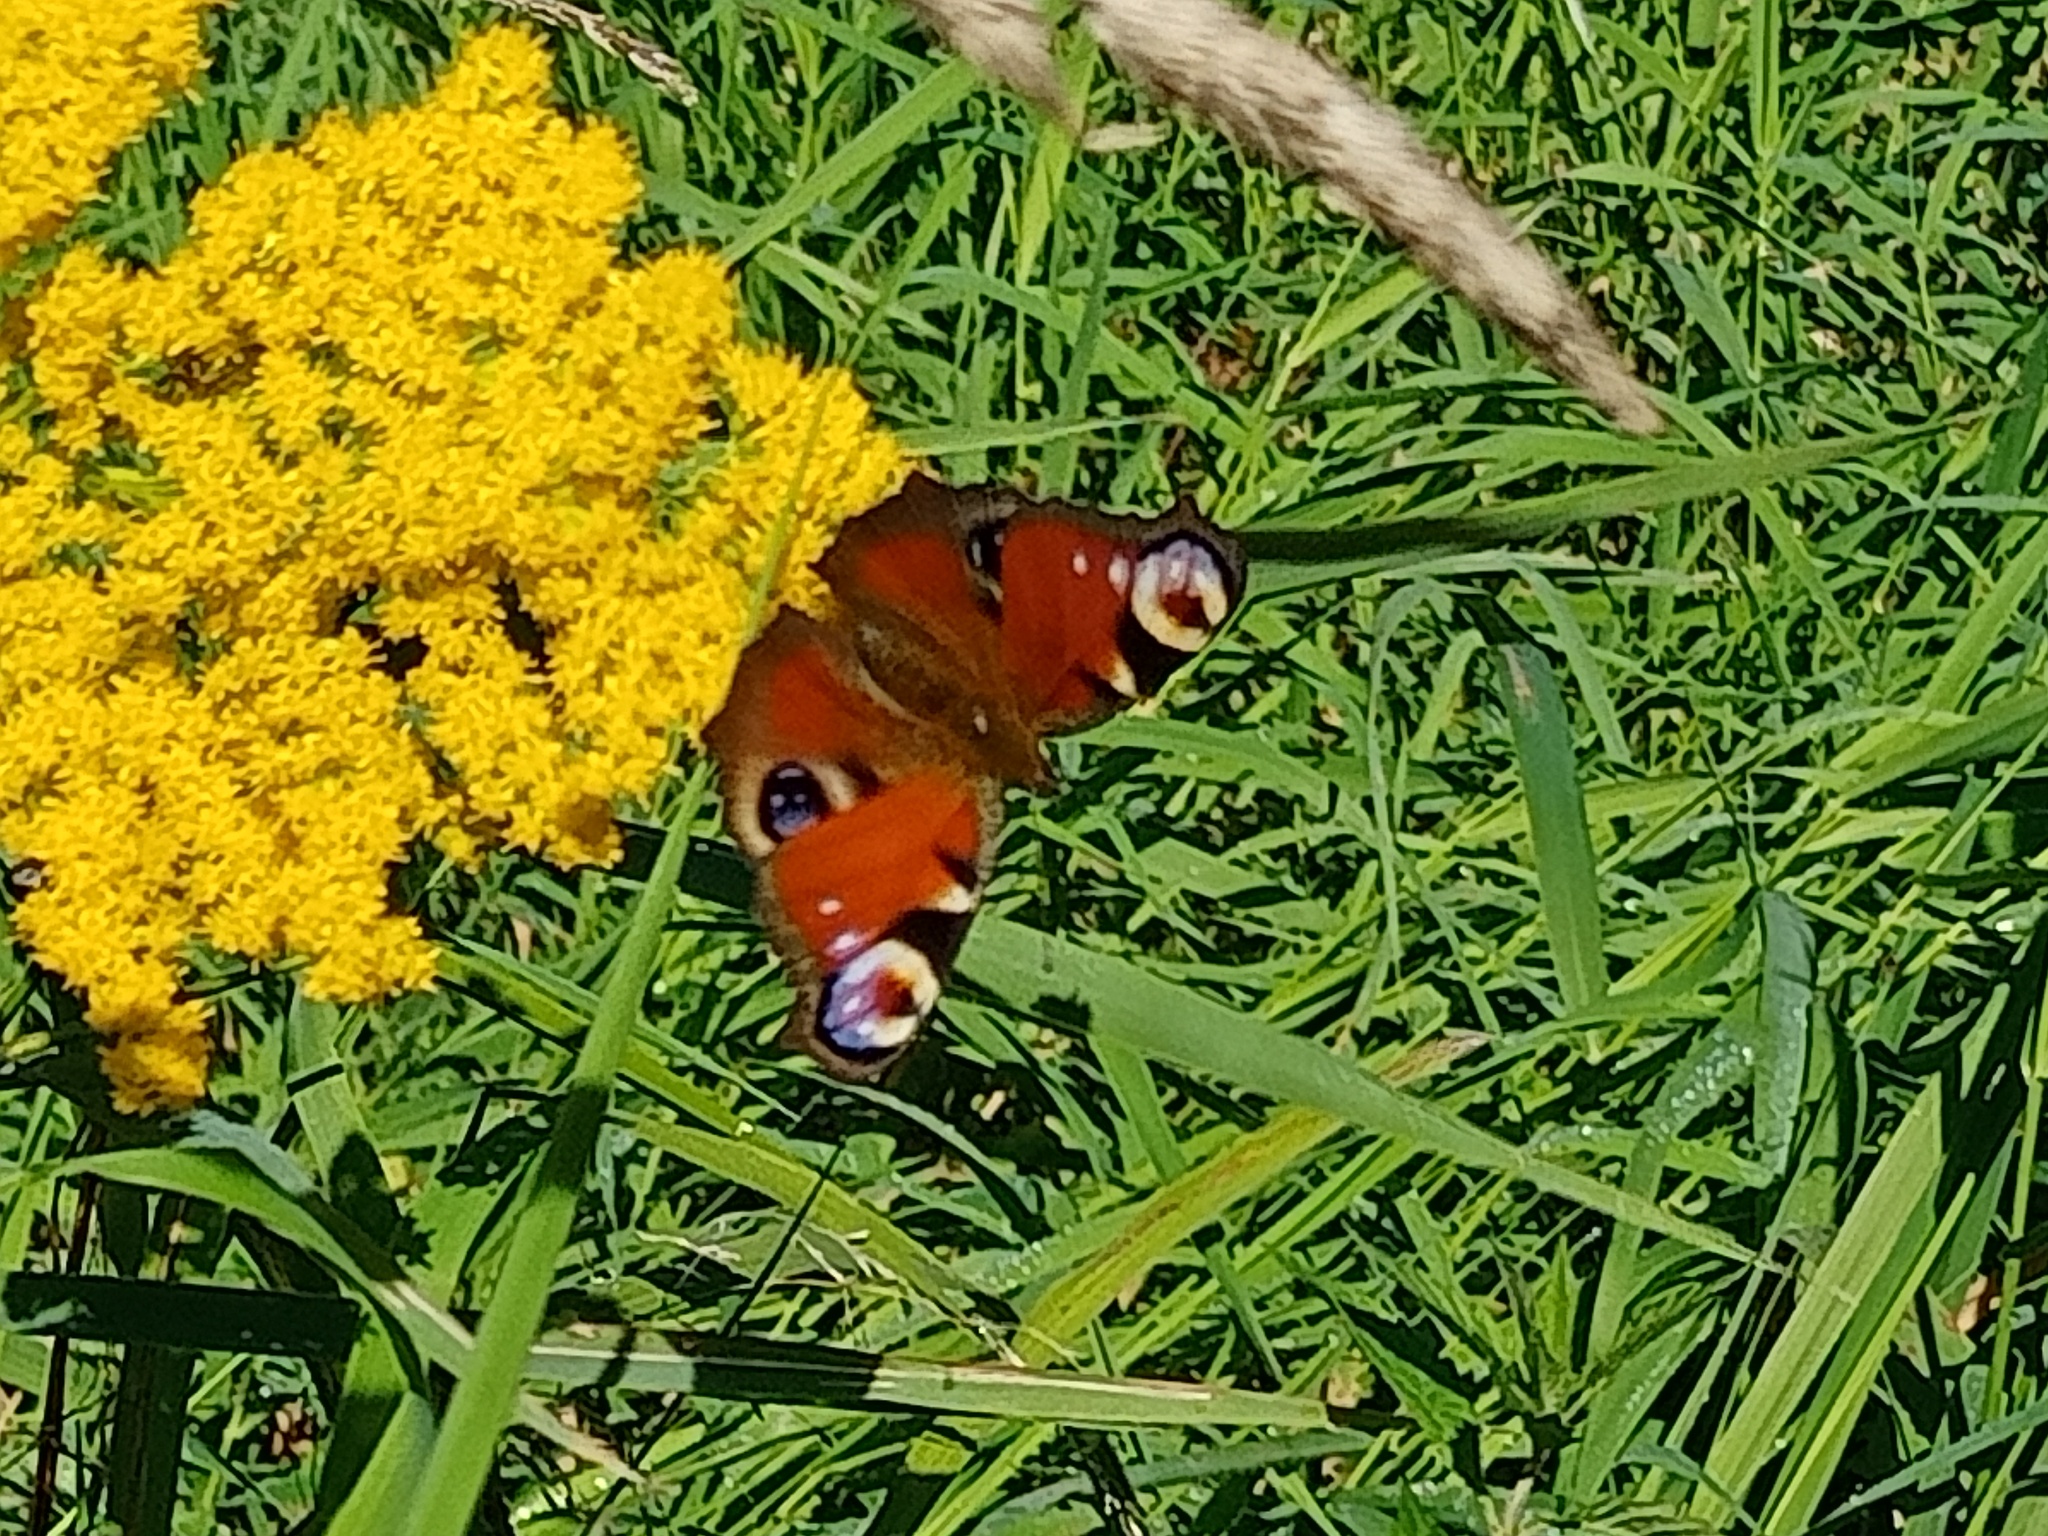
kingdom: Animalia
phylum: Arthropoda
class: Insecta
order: Lepidoptera
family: Nymphalidae
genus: Aglais
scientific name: Aglais io
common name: Peacock
